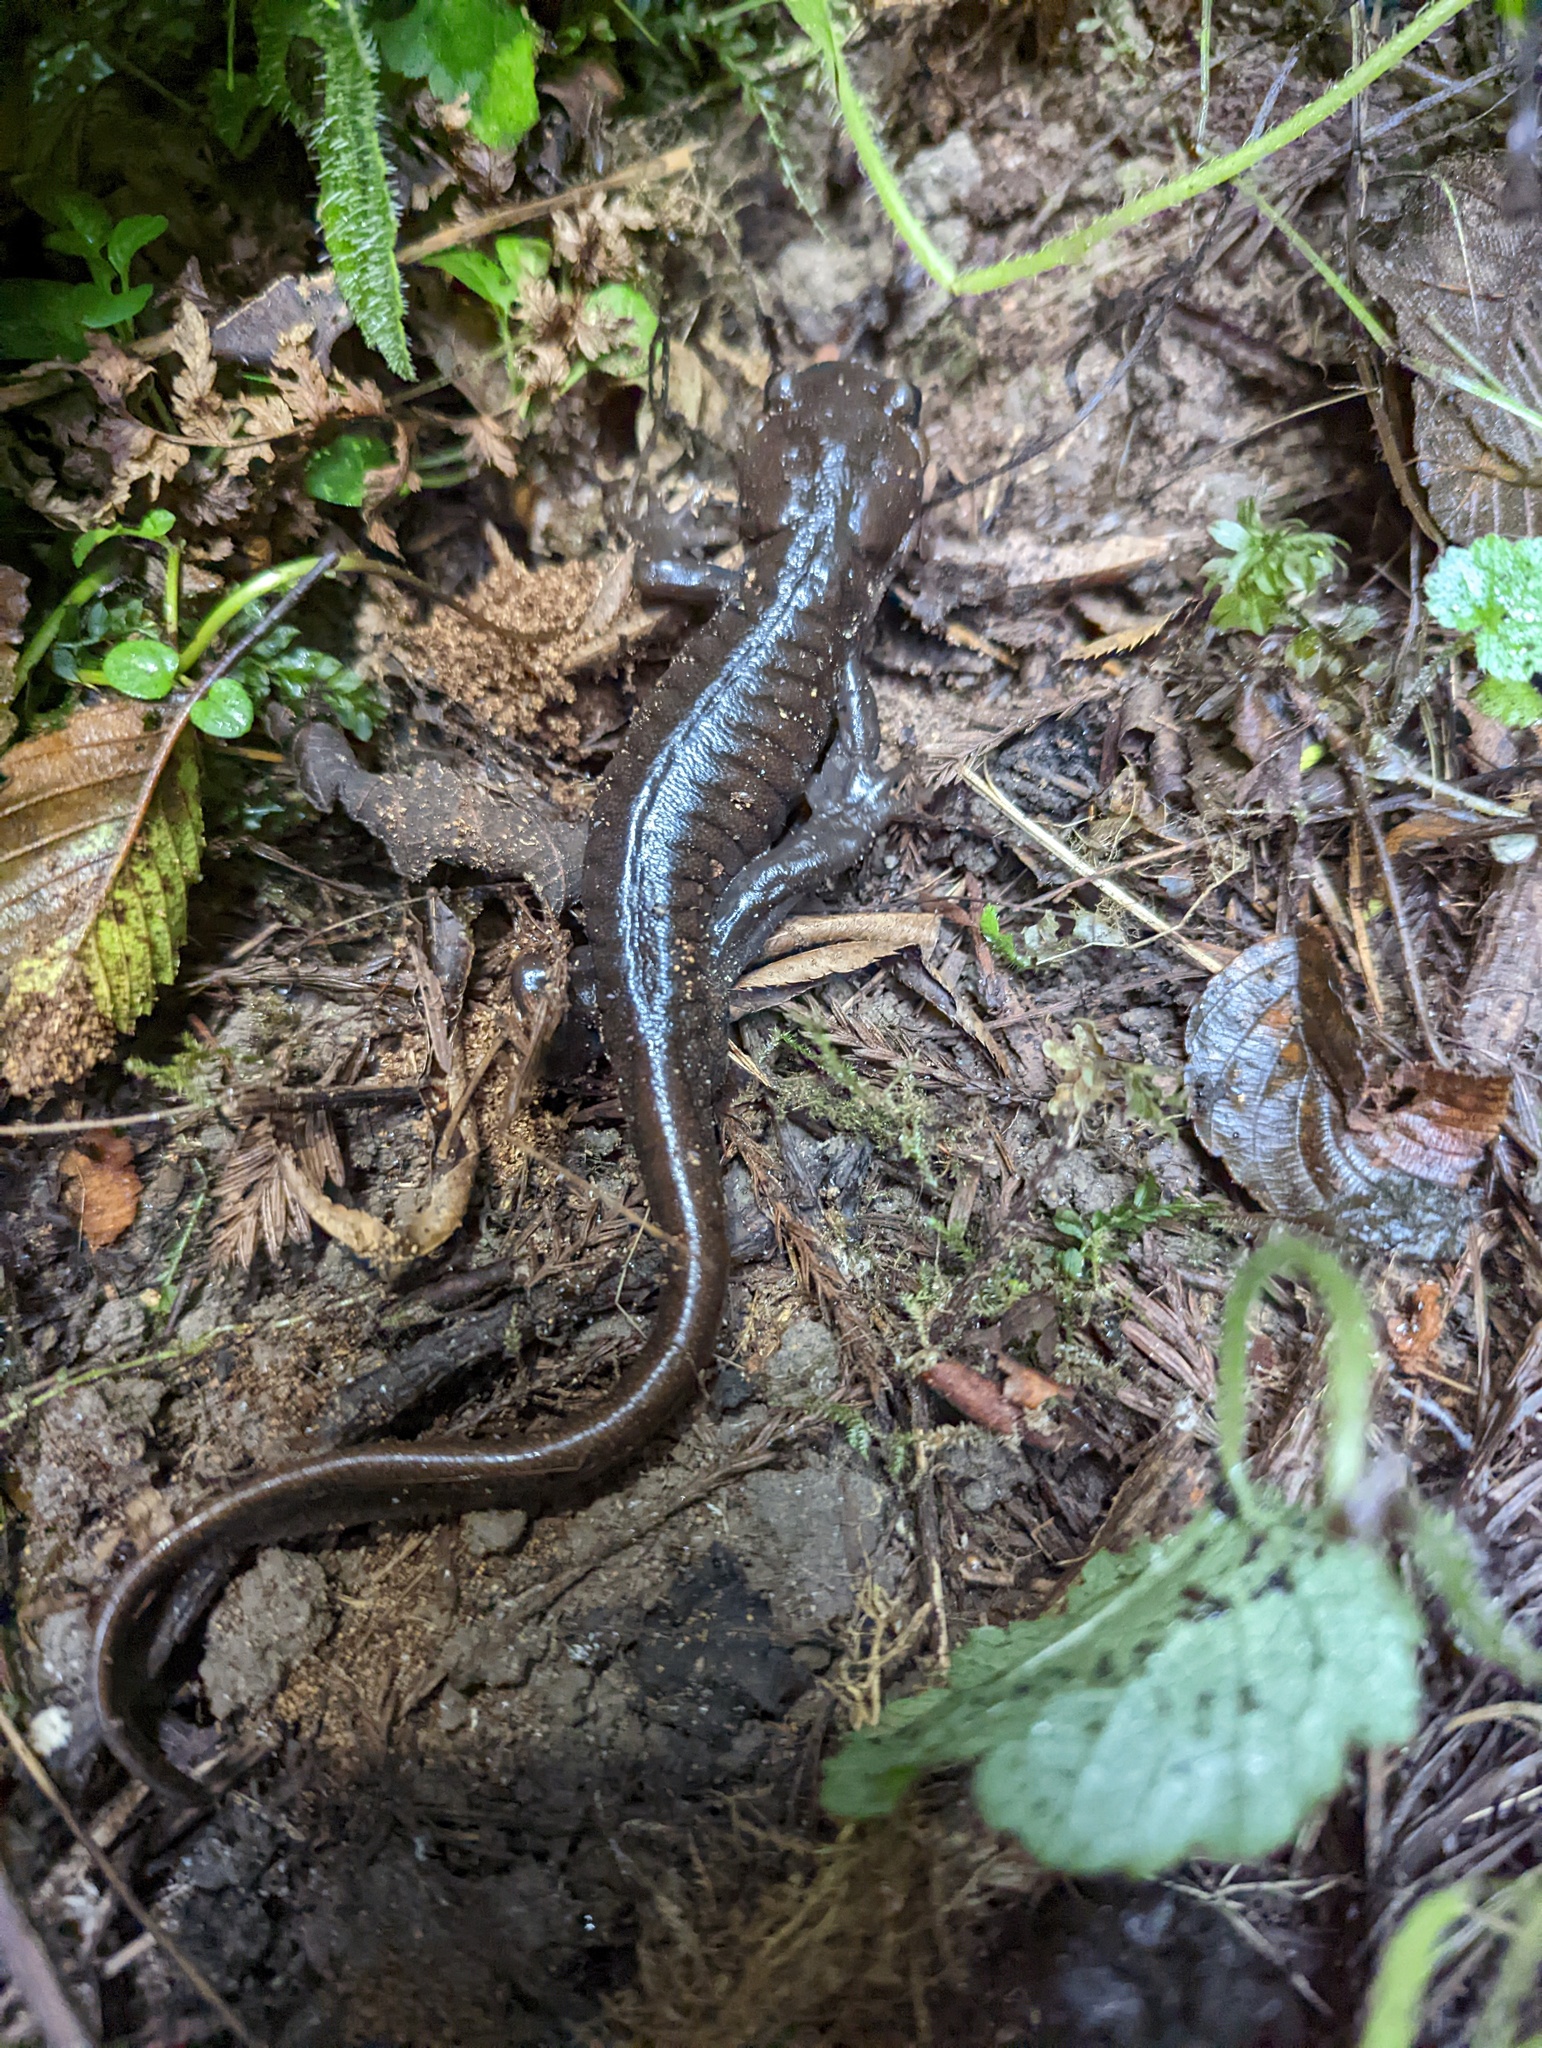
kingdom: Animalia
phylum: Chordata
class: Amphibia
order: Caudata
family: Ambystomatidae
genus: Ambystoma
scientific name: Ambystoma gracile
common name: Northwestern salamander
